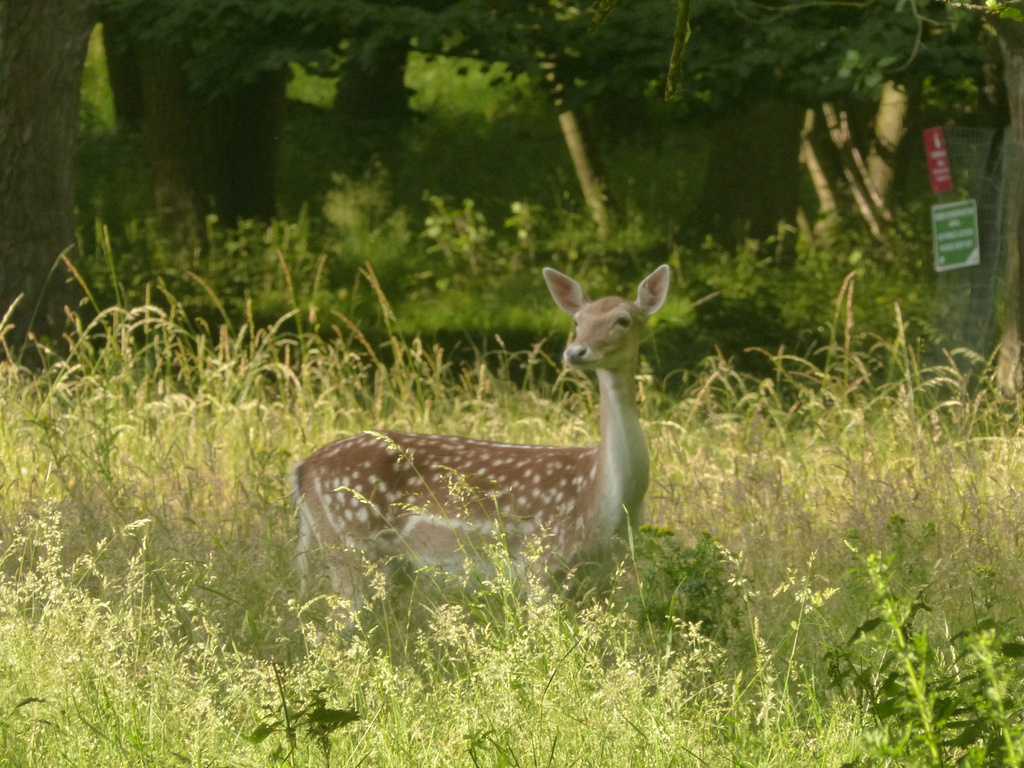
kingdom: Animalia
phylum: Chordata
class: Mammalia
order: Artiodactyla
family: Cervidae
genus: Dama
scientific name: Dama dama
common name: Fallow deer
